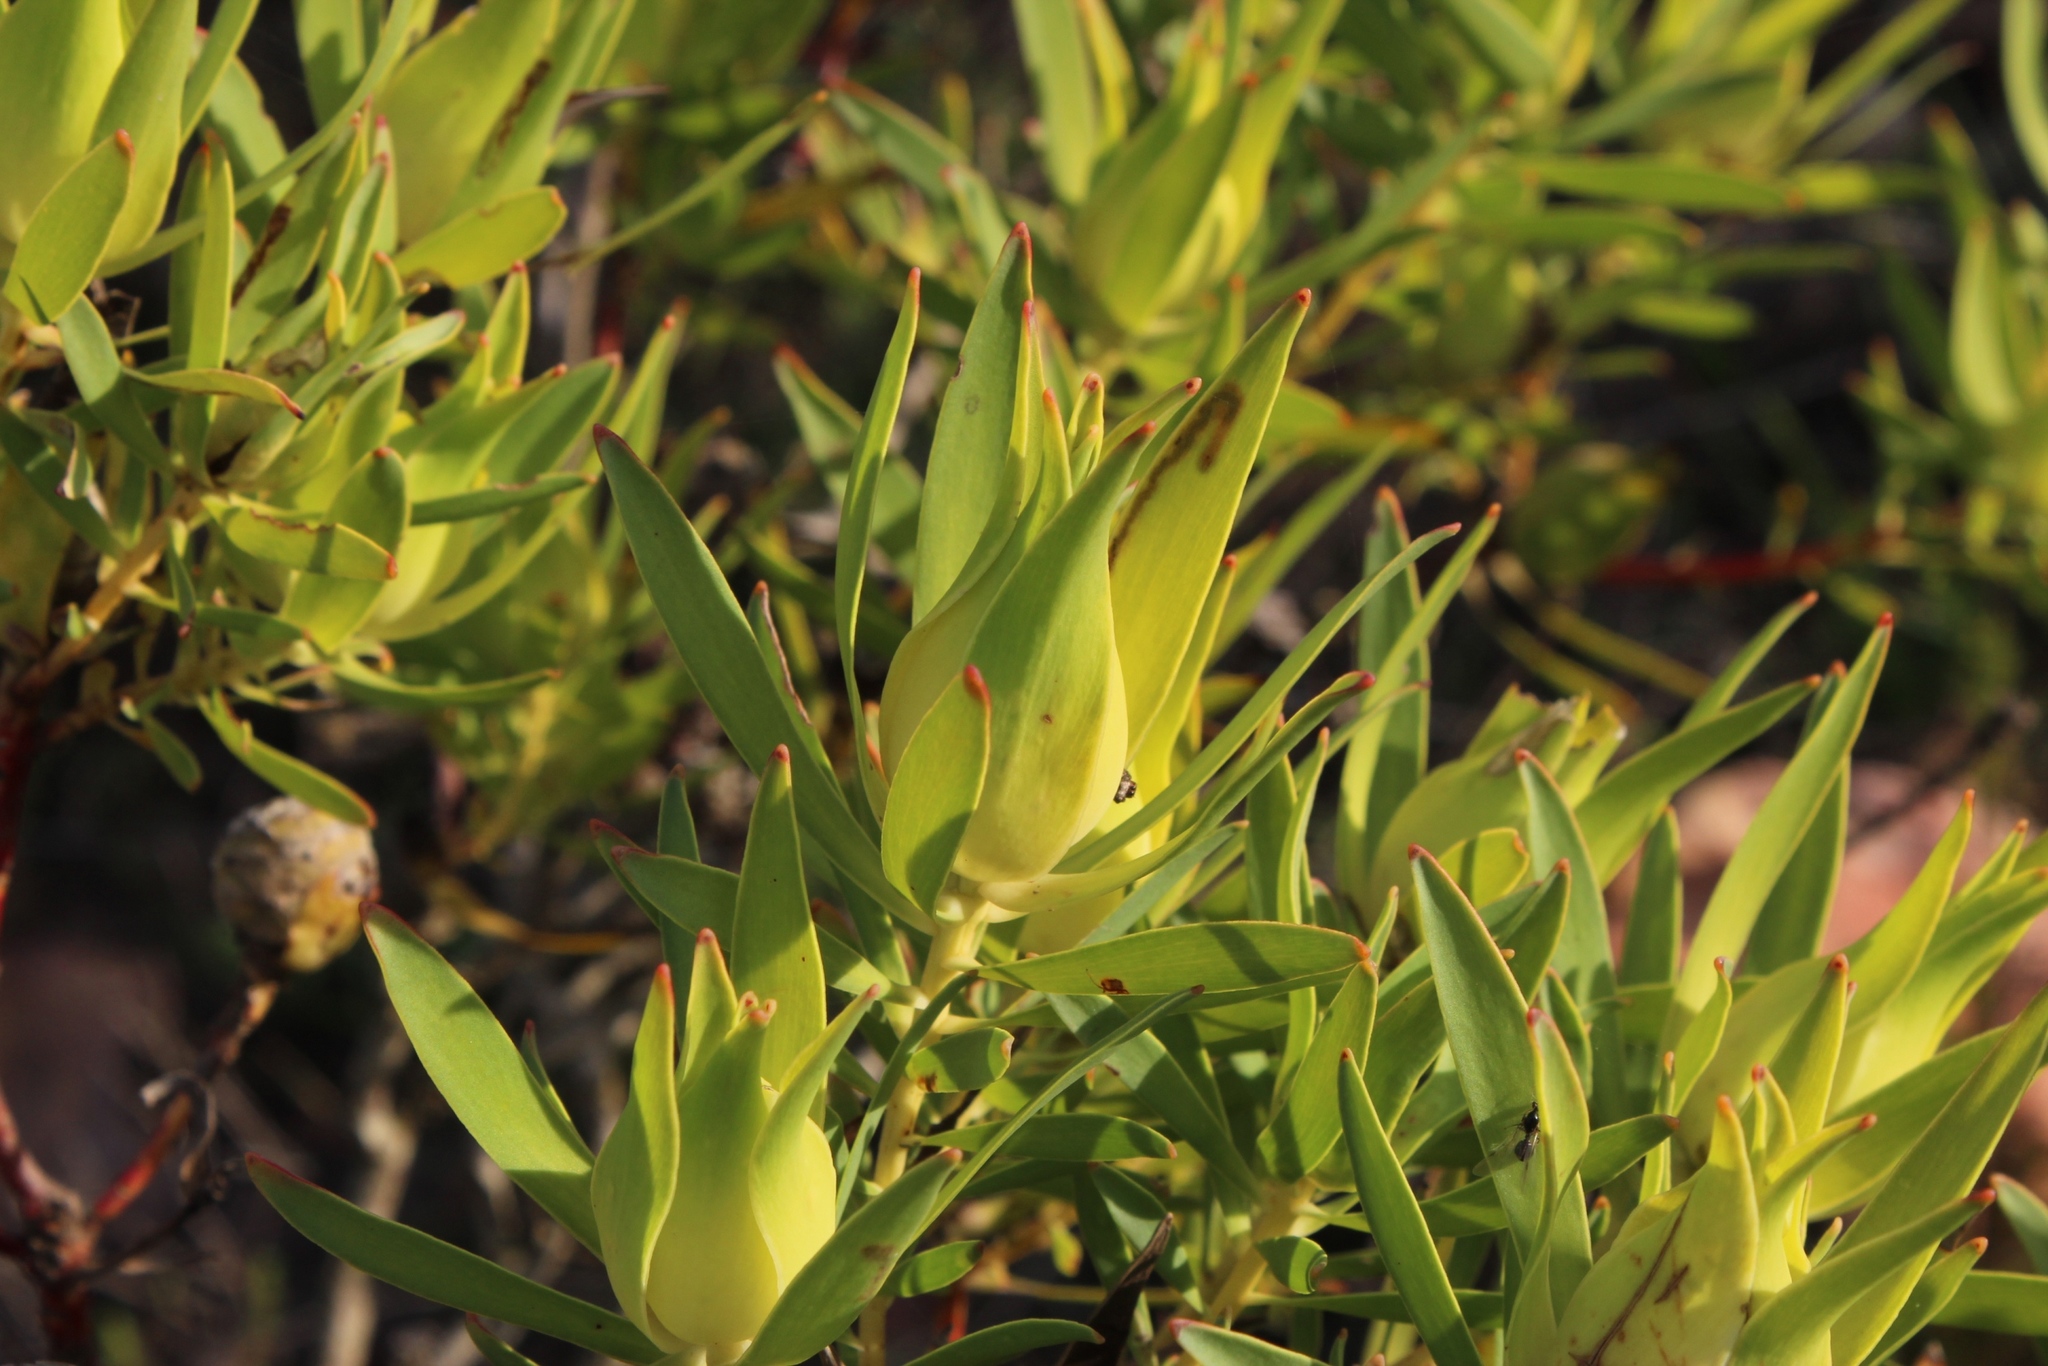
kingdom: Plantae
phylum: Tracheophyta
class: Magnoliopsida
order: Proteales
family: Proteaceae
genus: Leucadendron
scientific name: Leucadendron salignum
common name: Common sunshine conebush
